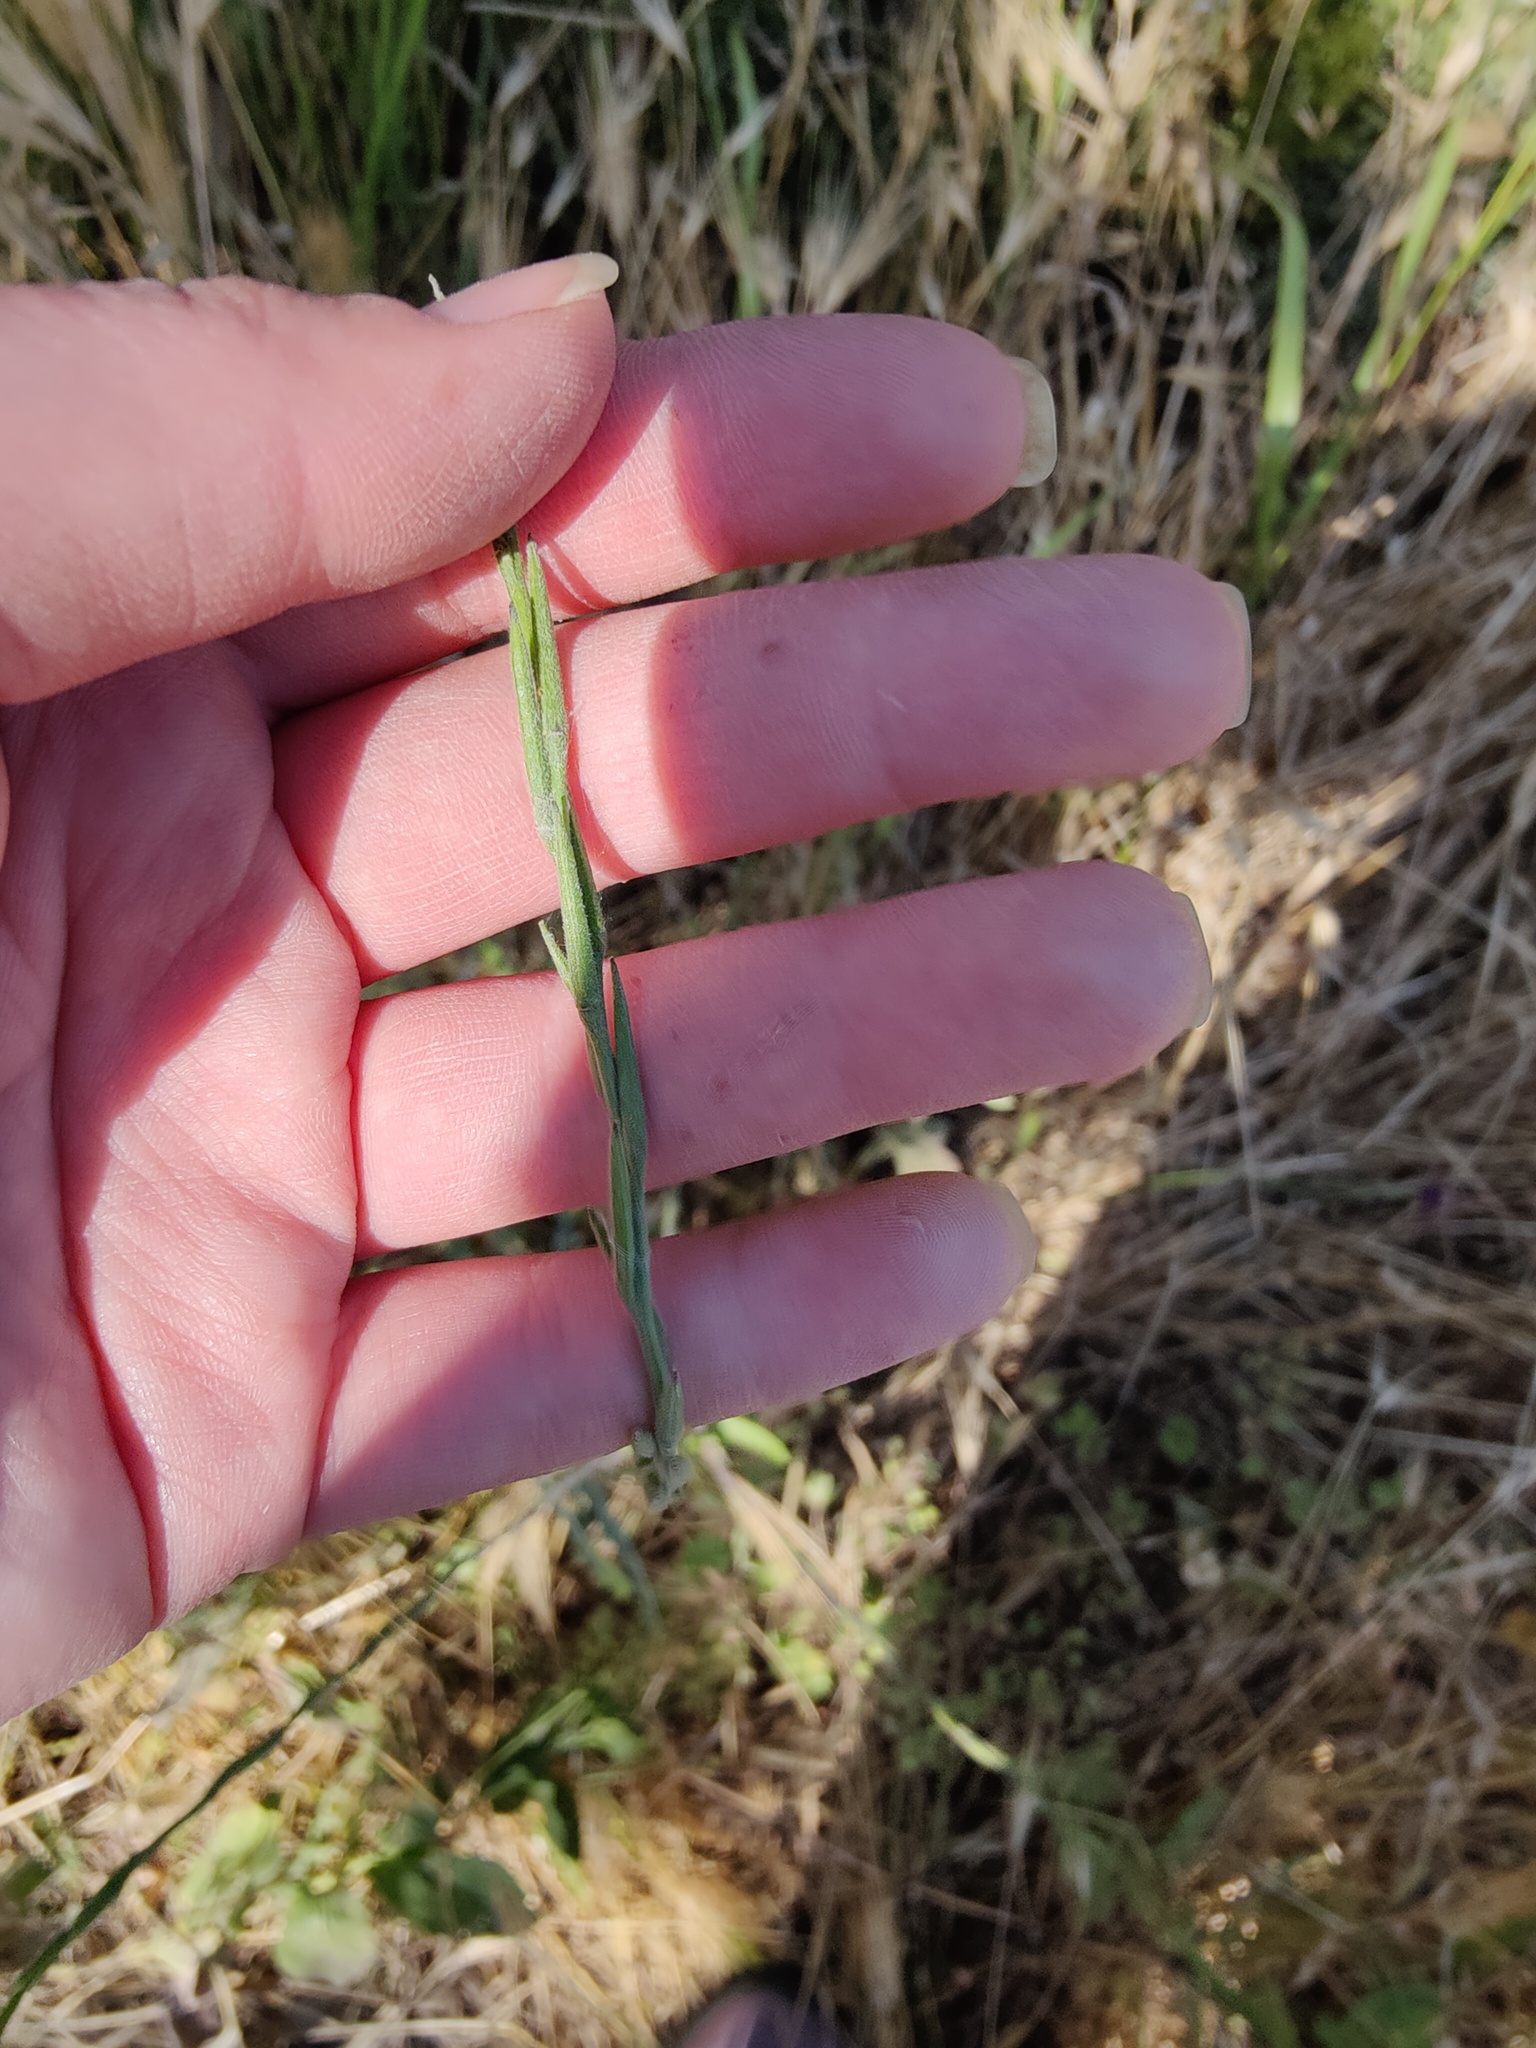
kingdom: Plantae
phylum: Tracheophyta
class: Magnoliopsida
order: Brassicales
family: Brassicaceae
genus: Sisymbrium
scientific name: Sisymbrium officinale
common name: Hedge mustard
